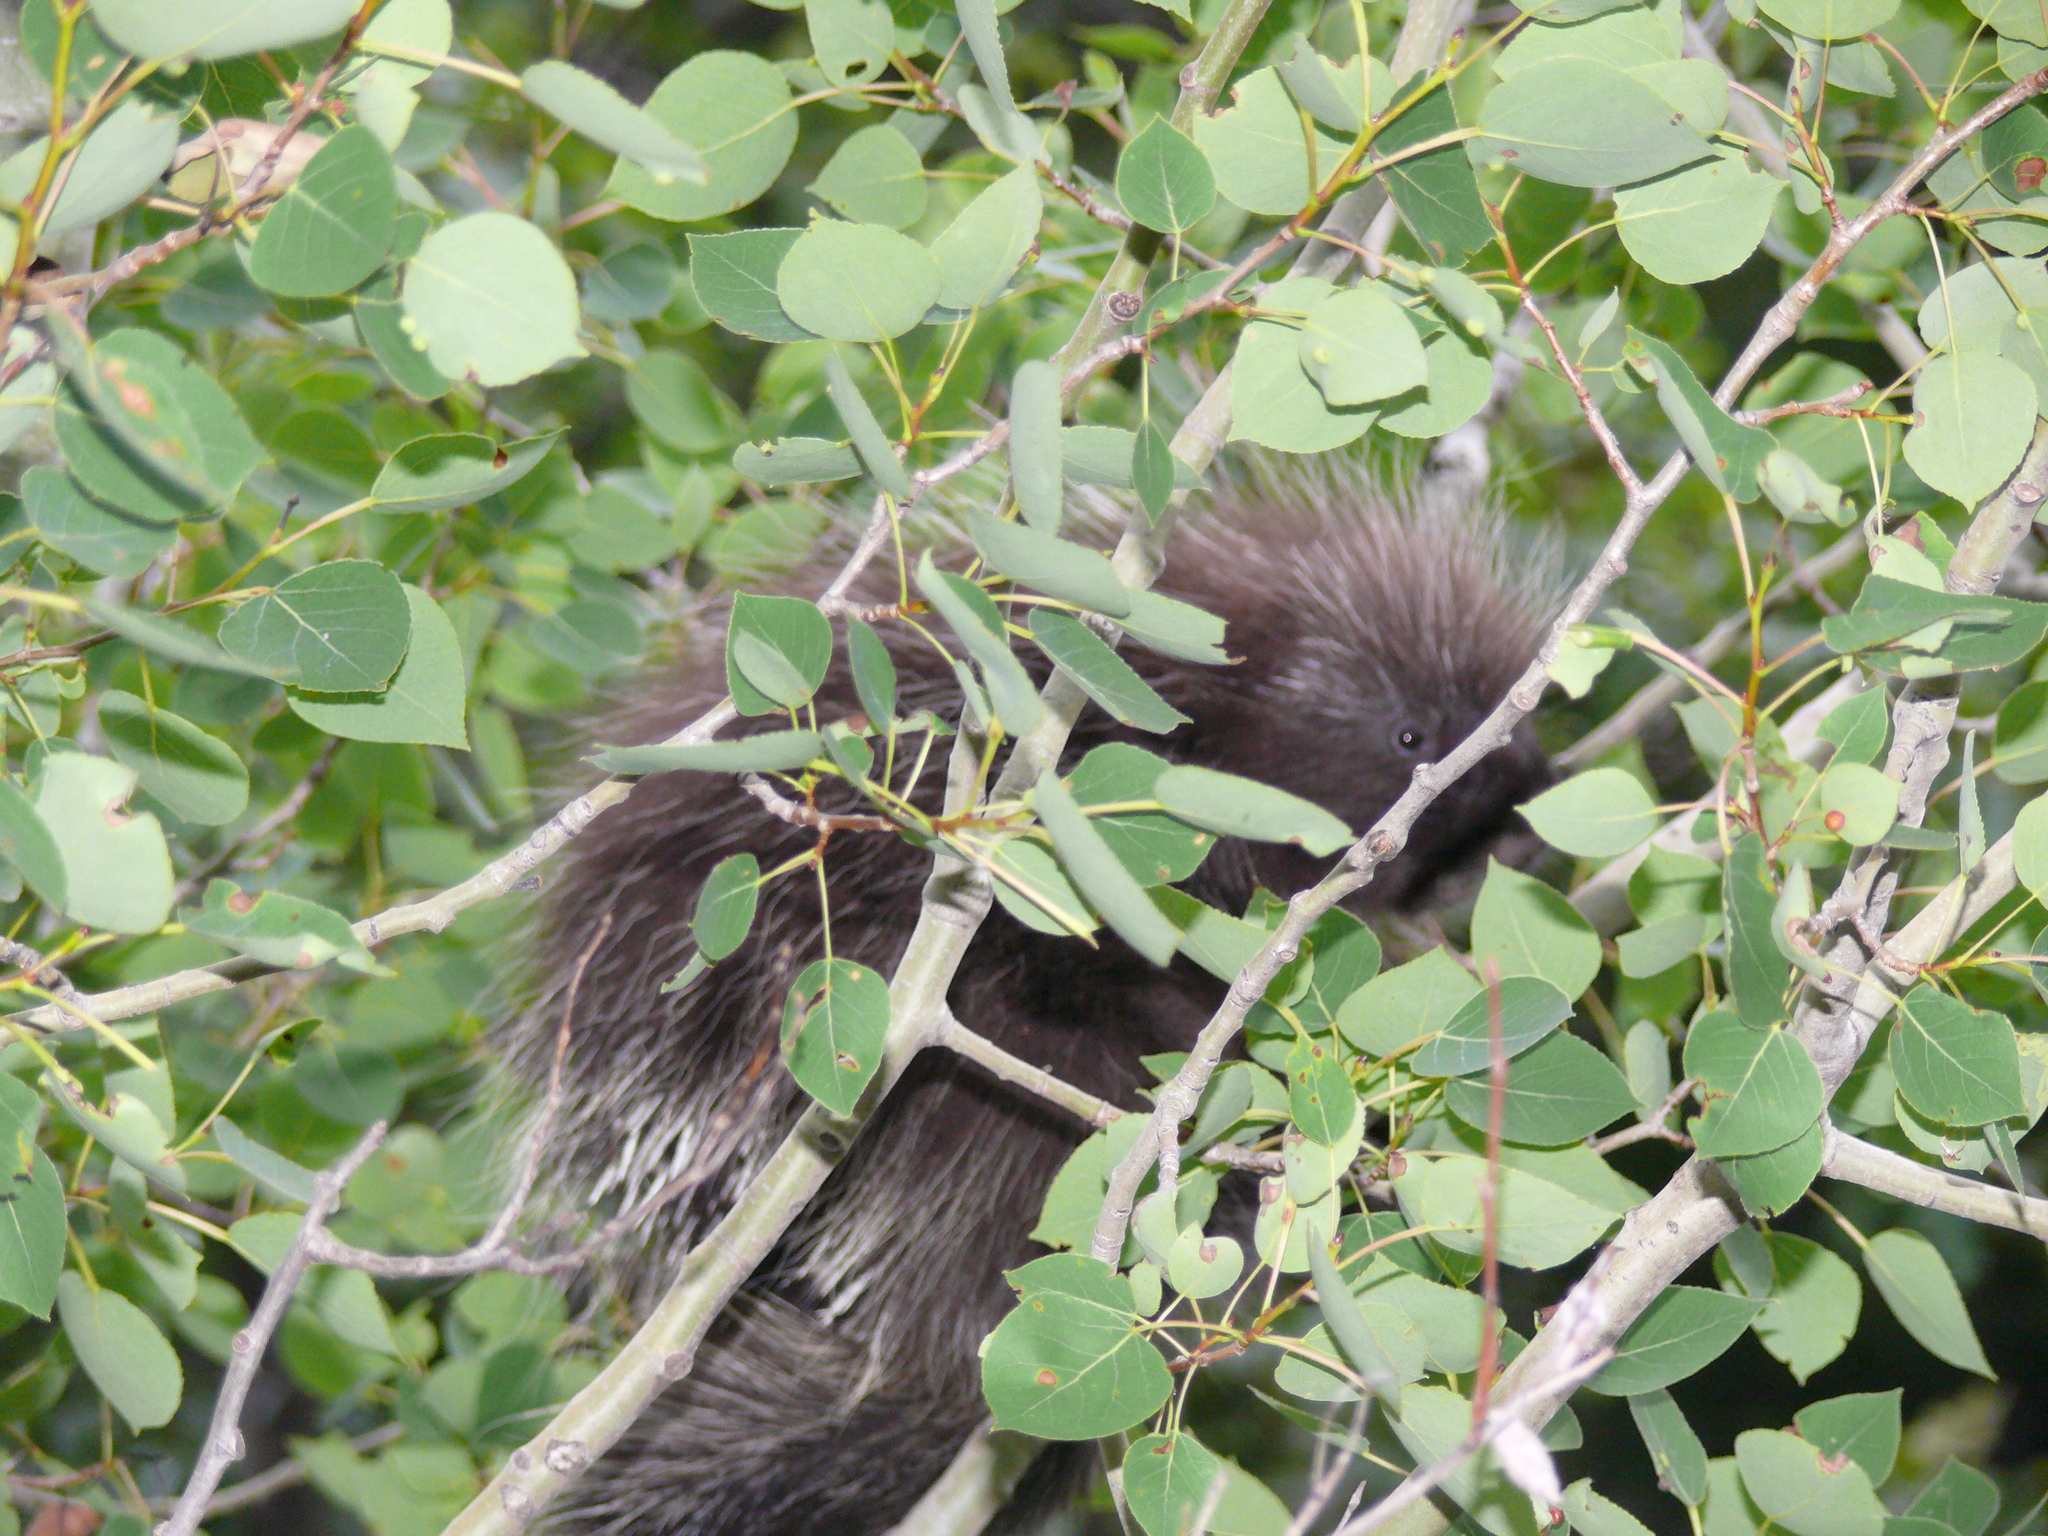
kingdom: Animalia
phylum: Chordata
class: Mammalia
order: Rodentia
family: Erethizontidae
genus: Erethizon
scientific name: Erethizon dorsatus
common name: North american porcupine
